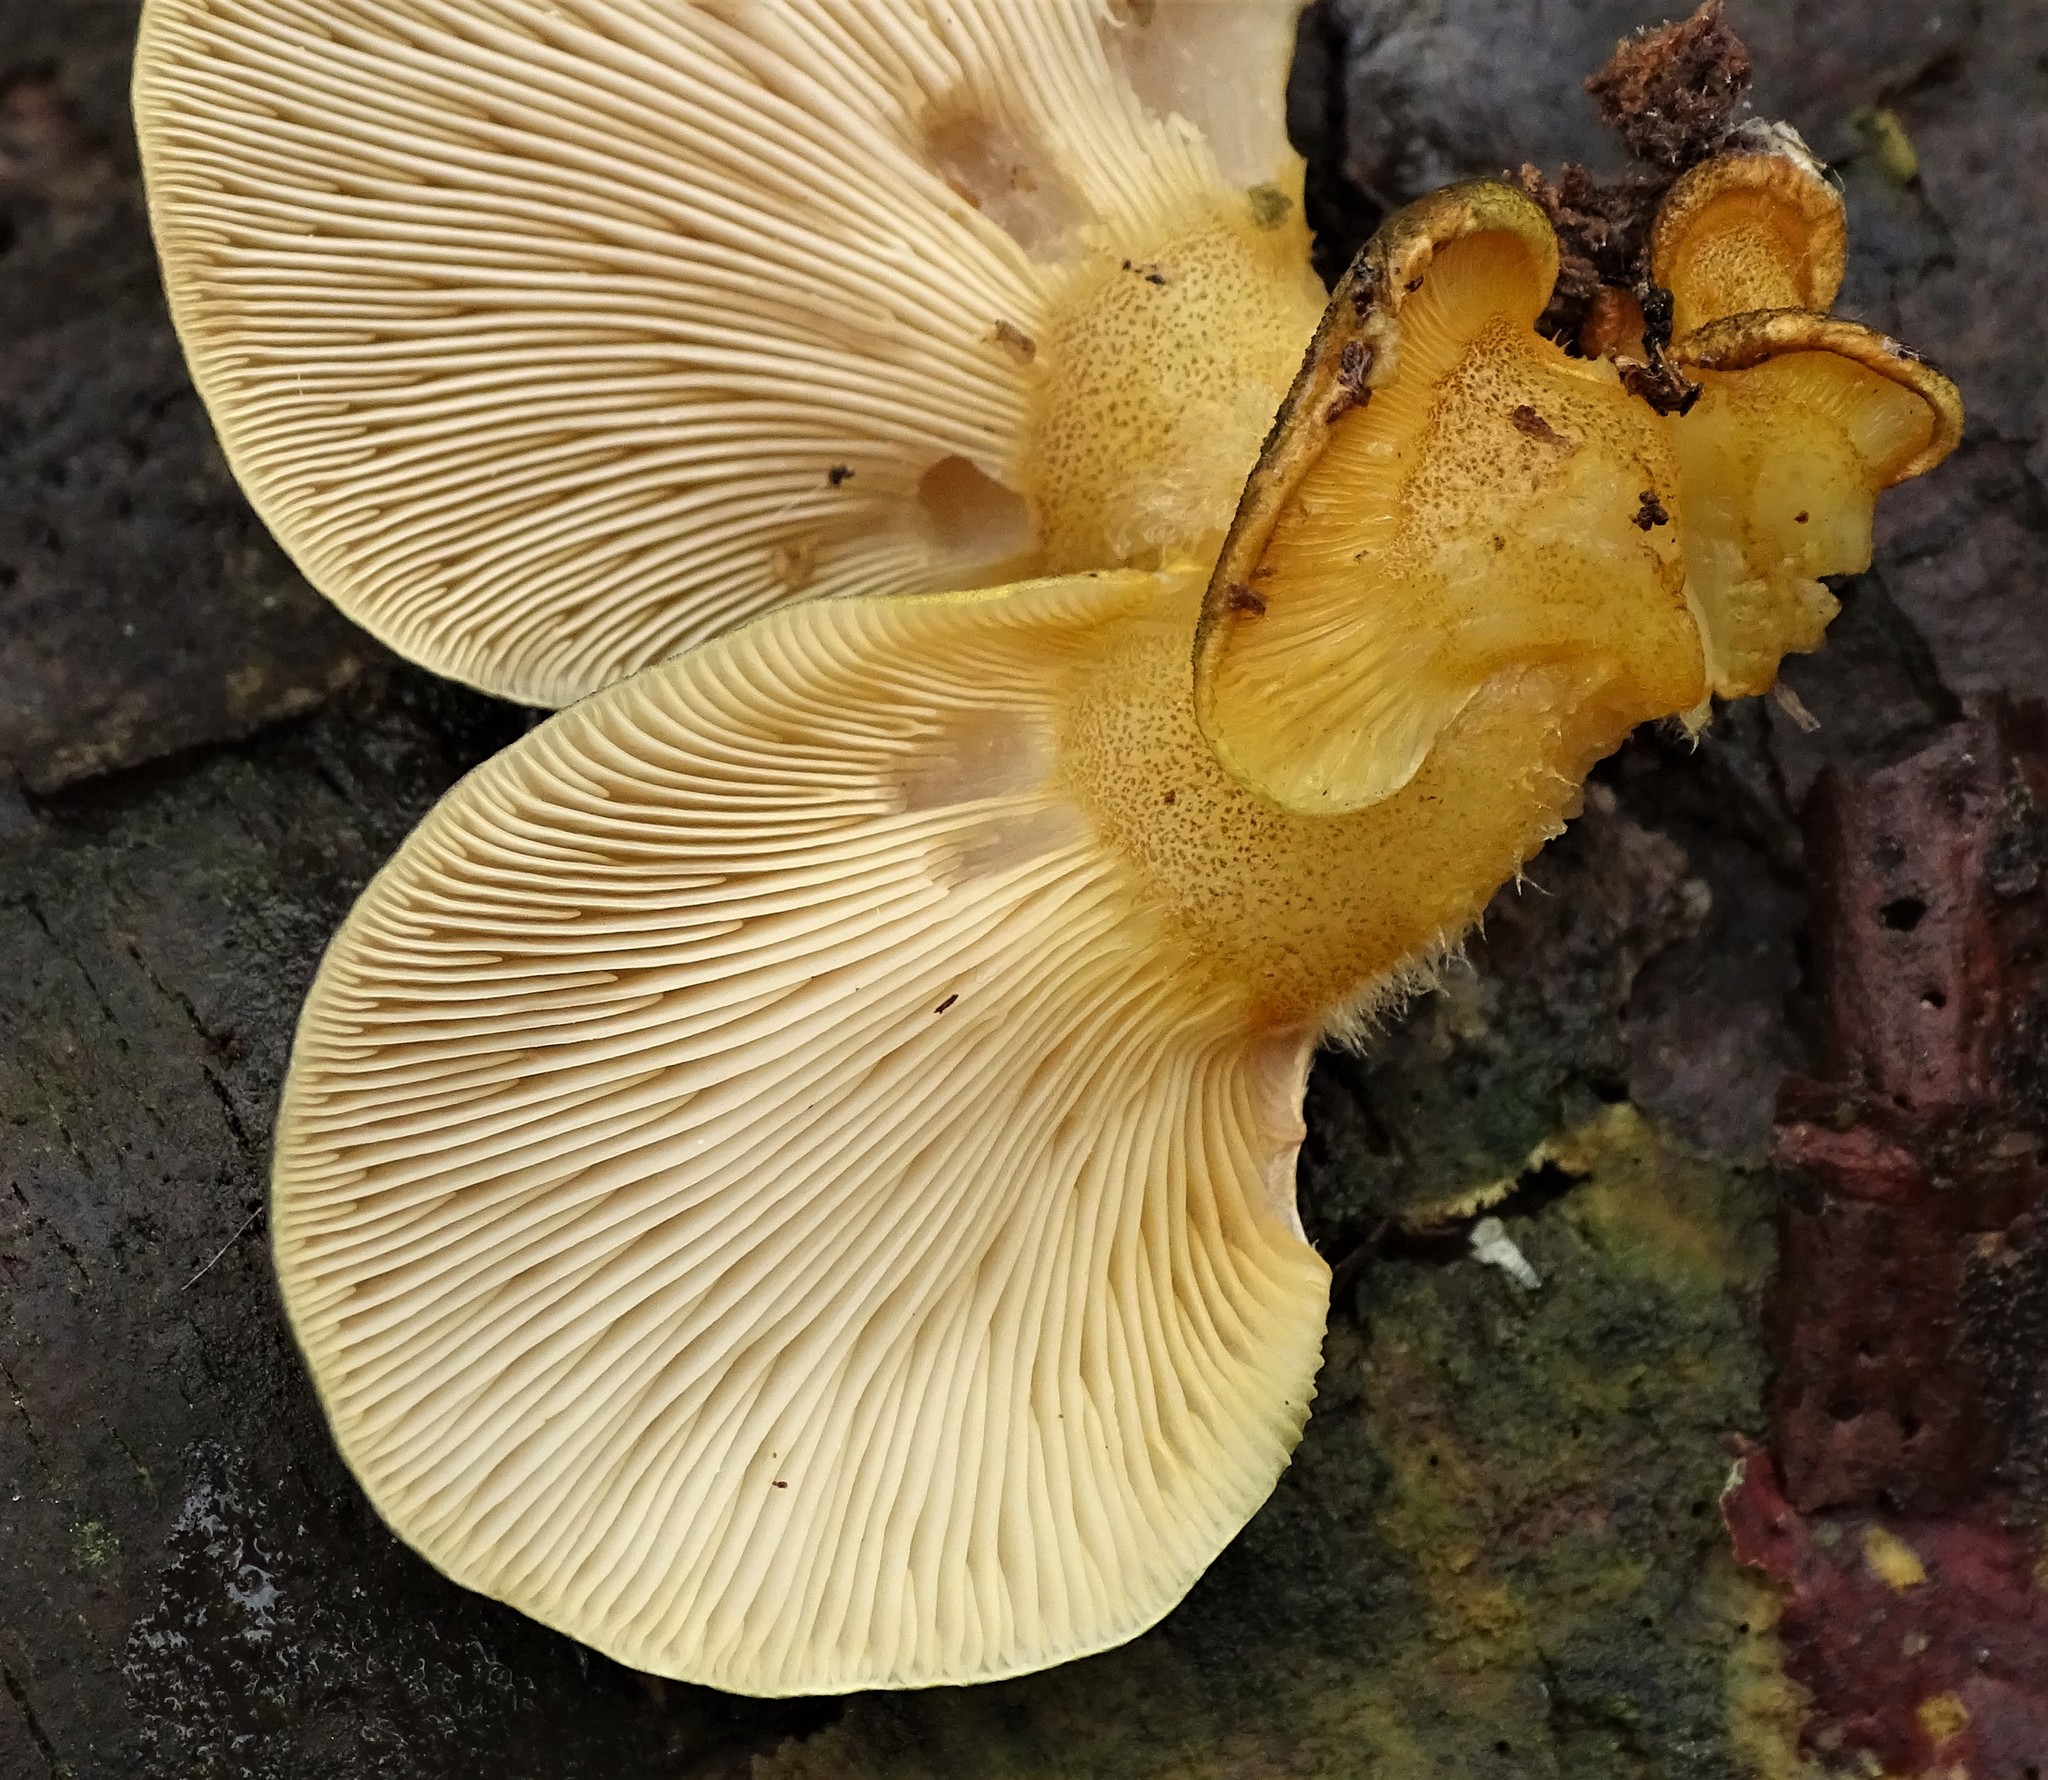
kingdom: Fungi
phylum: Basidiomycota
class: Agaricomycetes
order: Agaricales
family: Sarcomyxaceae
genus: Sarcomyxa
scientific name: Sarcomyxa serotina
